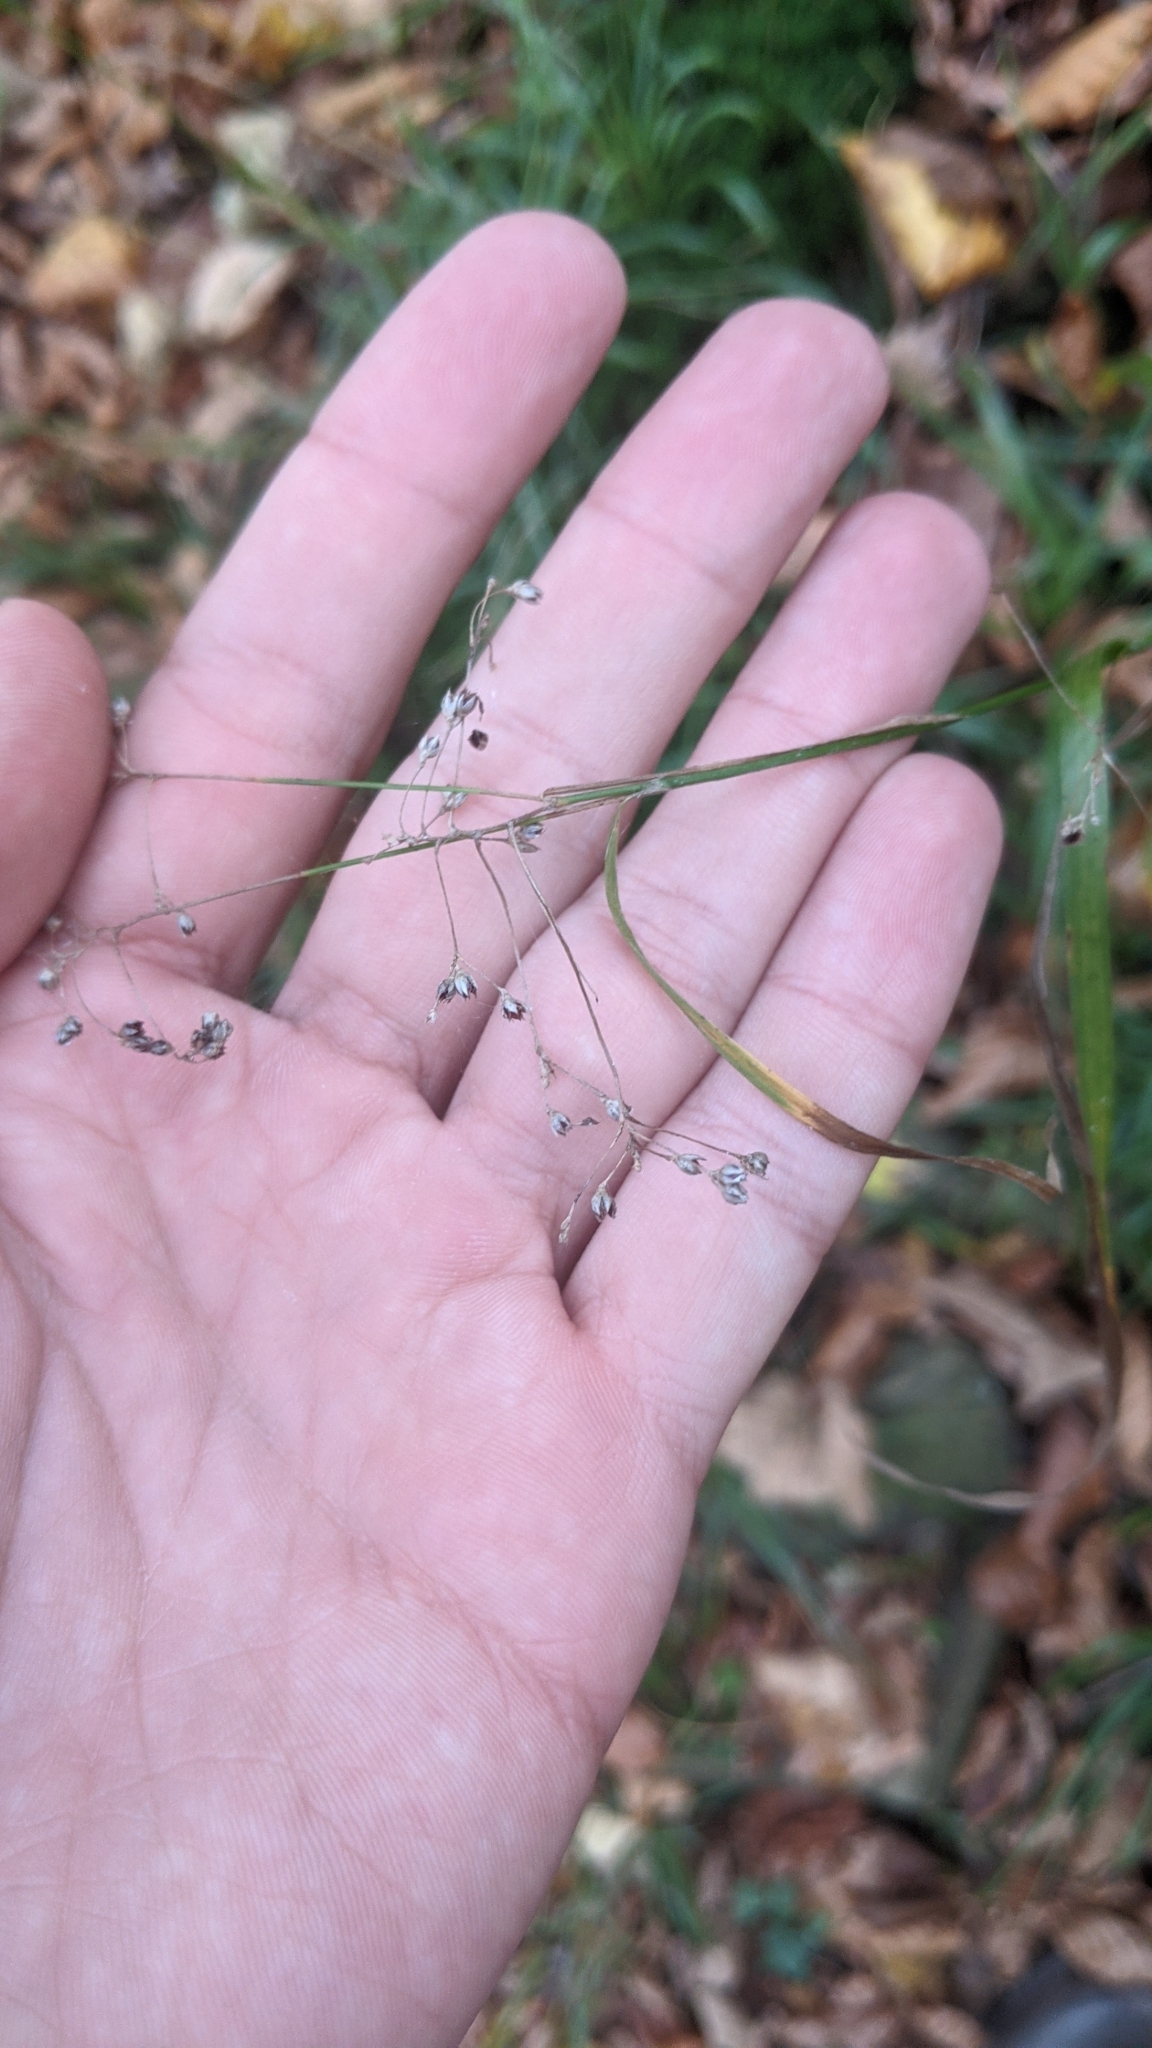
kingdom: Plantae
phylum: Tracheophyta
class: Liliopsida
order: Poales
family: Juncaceae
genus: Luzula
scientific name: Luzula luzuloides
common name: White wood-rush
